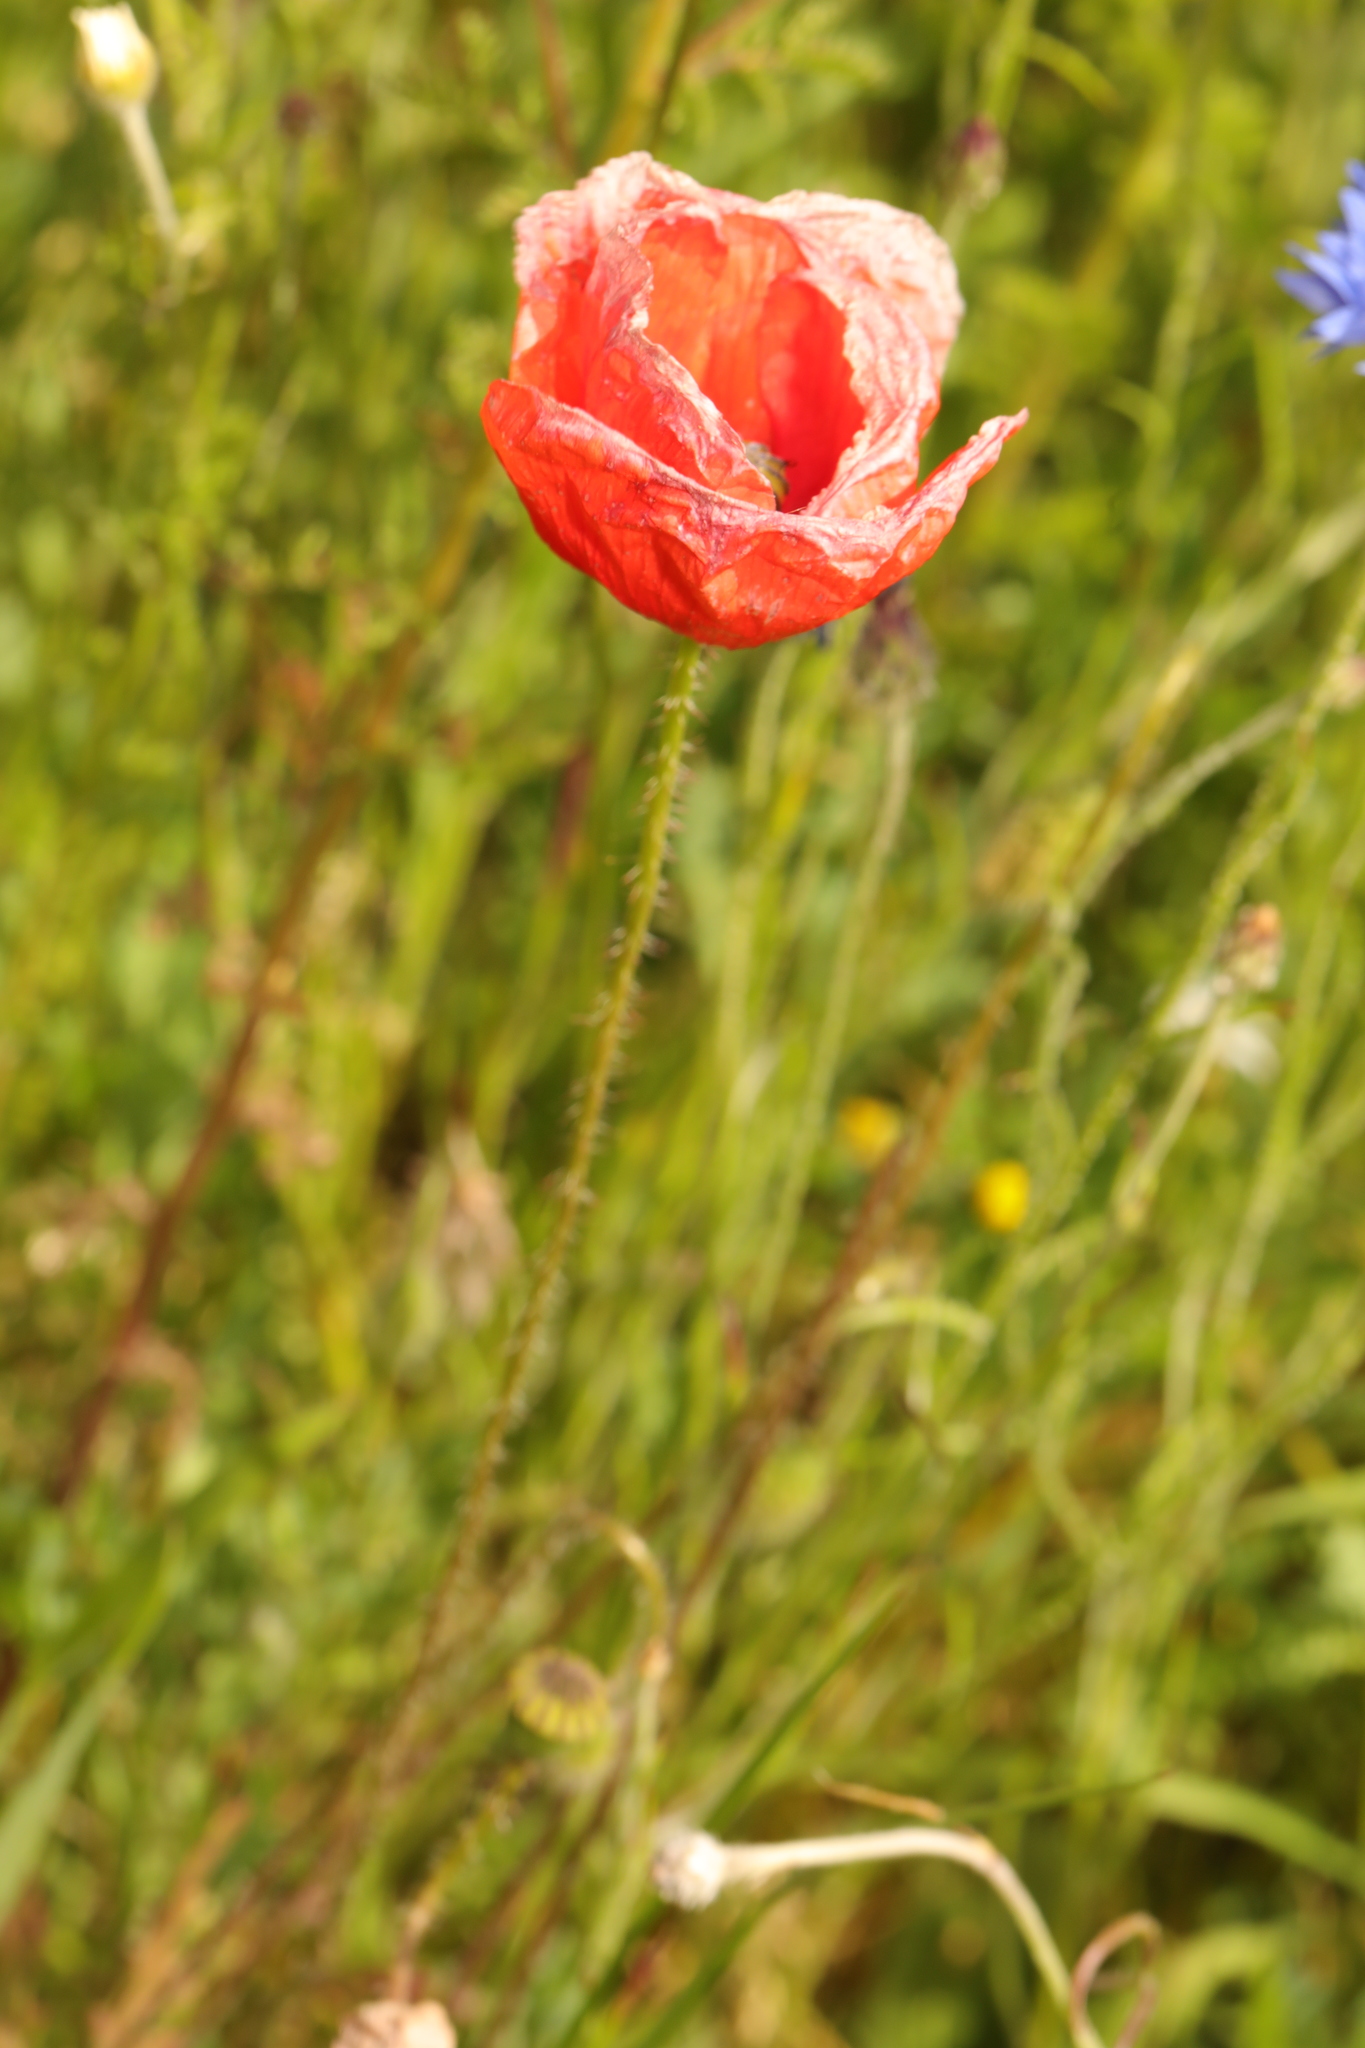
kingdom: Plantae
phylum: Tracheophyta
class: Magnoliopsida
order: Ranunculales
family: Papaveraceae
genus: Papaver
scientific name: Papaver rhoeas
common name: Corn poppy
